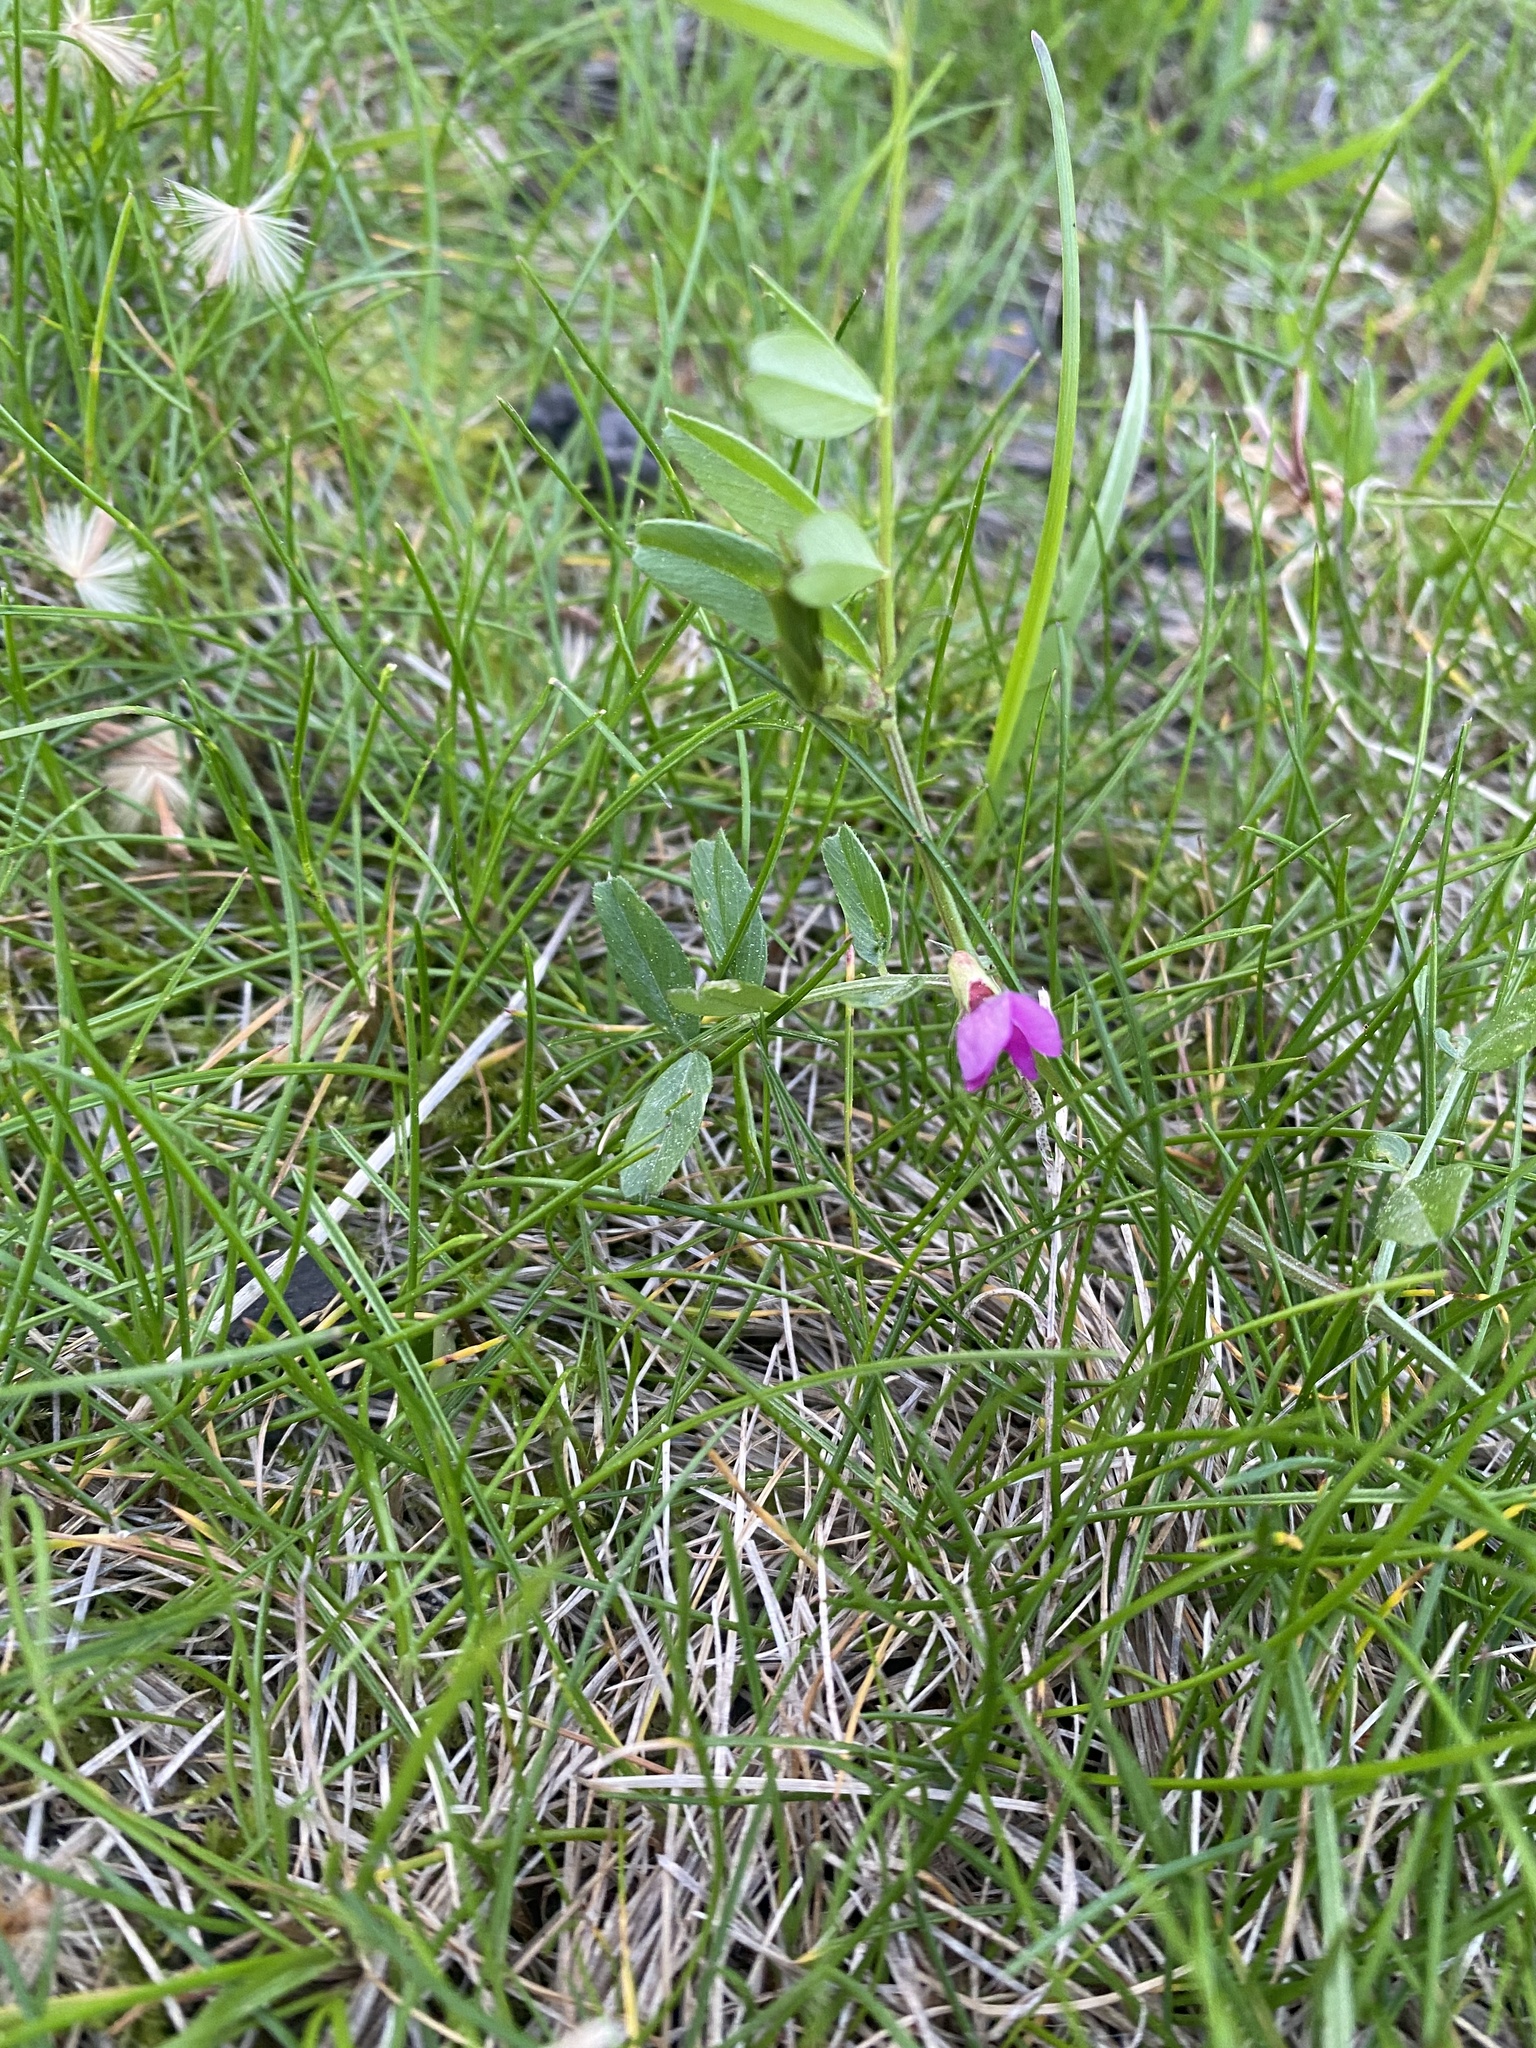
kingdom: Plantae
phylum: Tracheophyta
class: Magnoliopsida
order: Fabales
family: Fabaceae
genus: Vicia
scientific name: Vicia sativa
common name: Garden vetch
